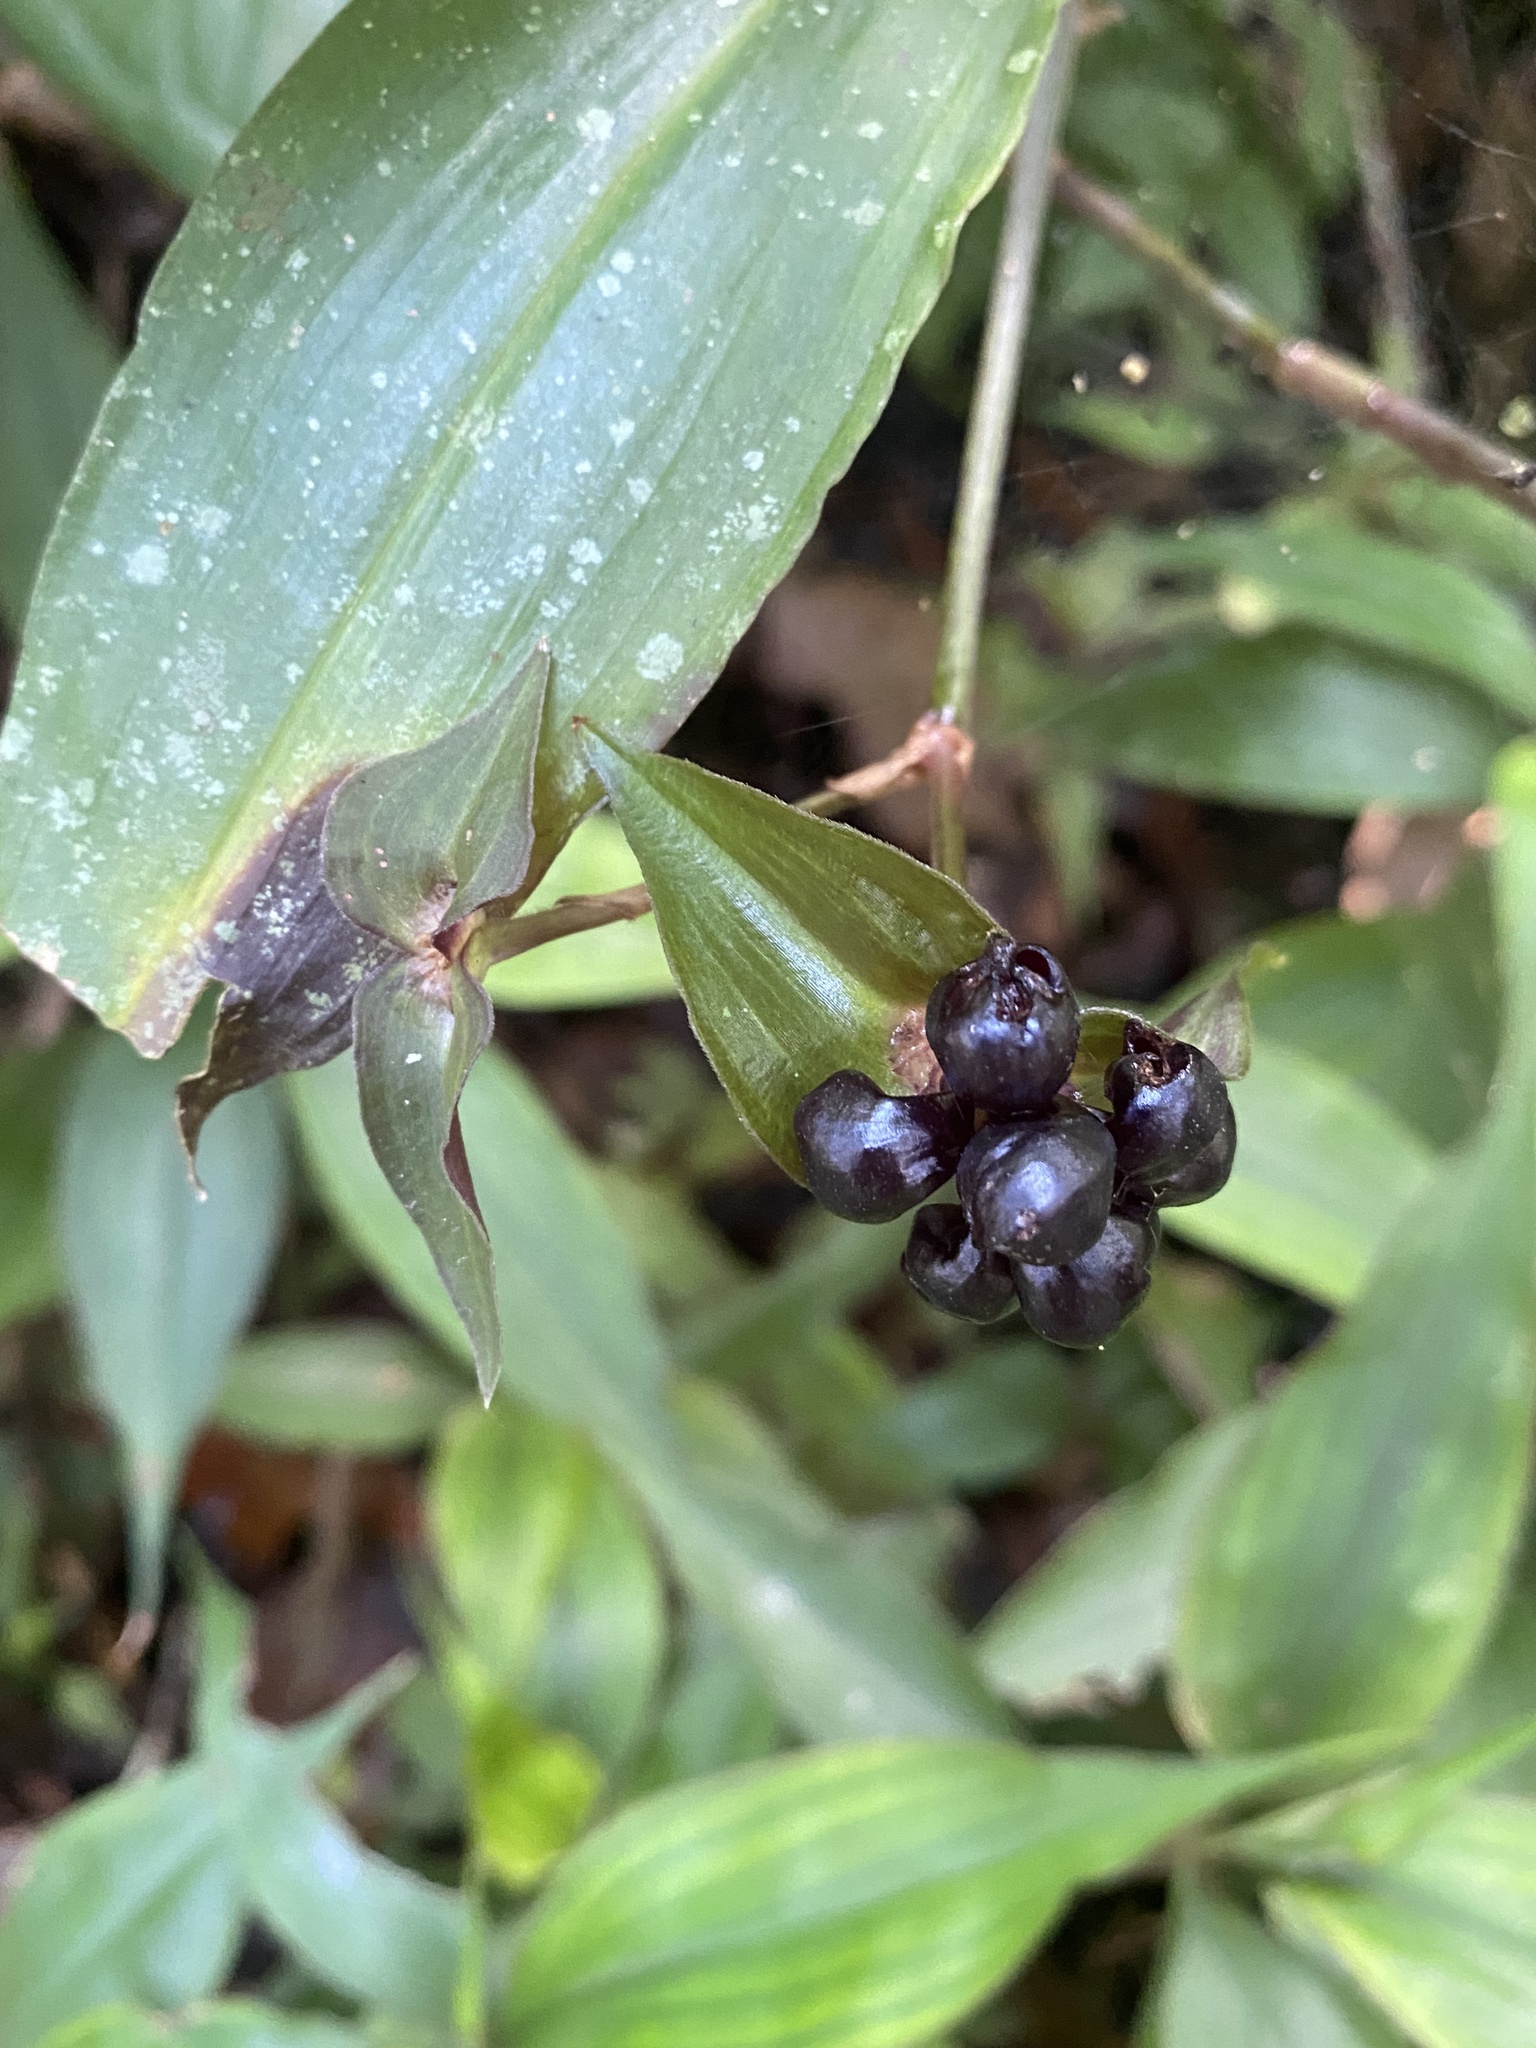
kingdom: Plantae
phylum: Tracheophyta
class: Liliopsida
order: Commelinales
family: Commelinaceae
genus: Tradescantia
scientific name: Tradescantia zanonia
